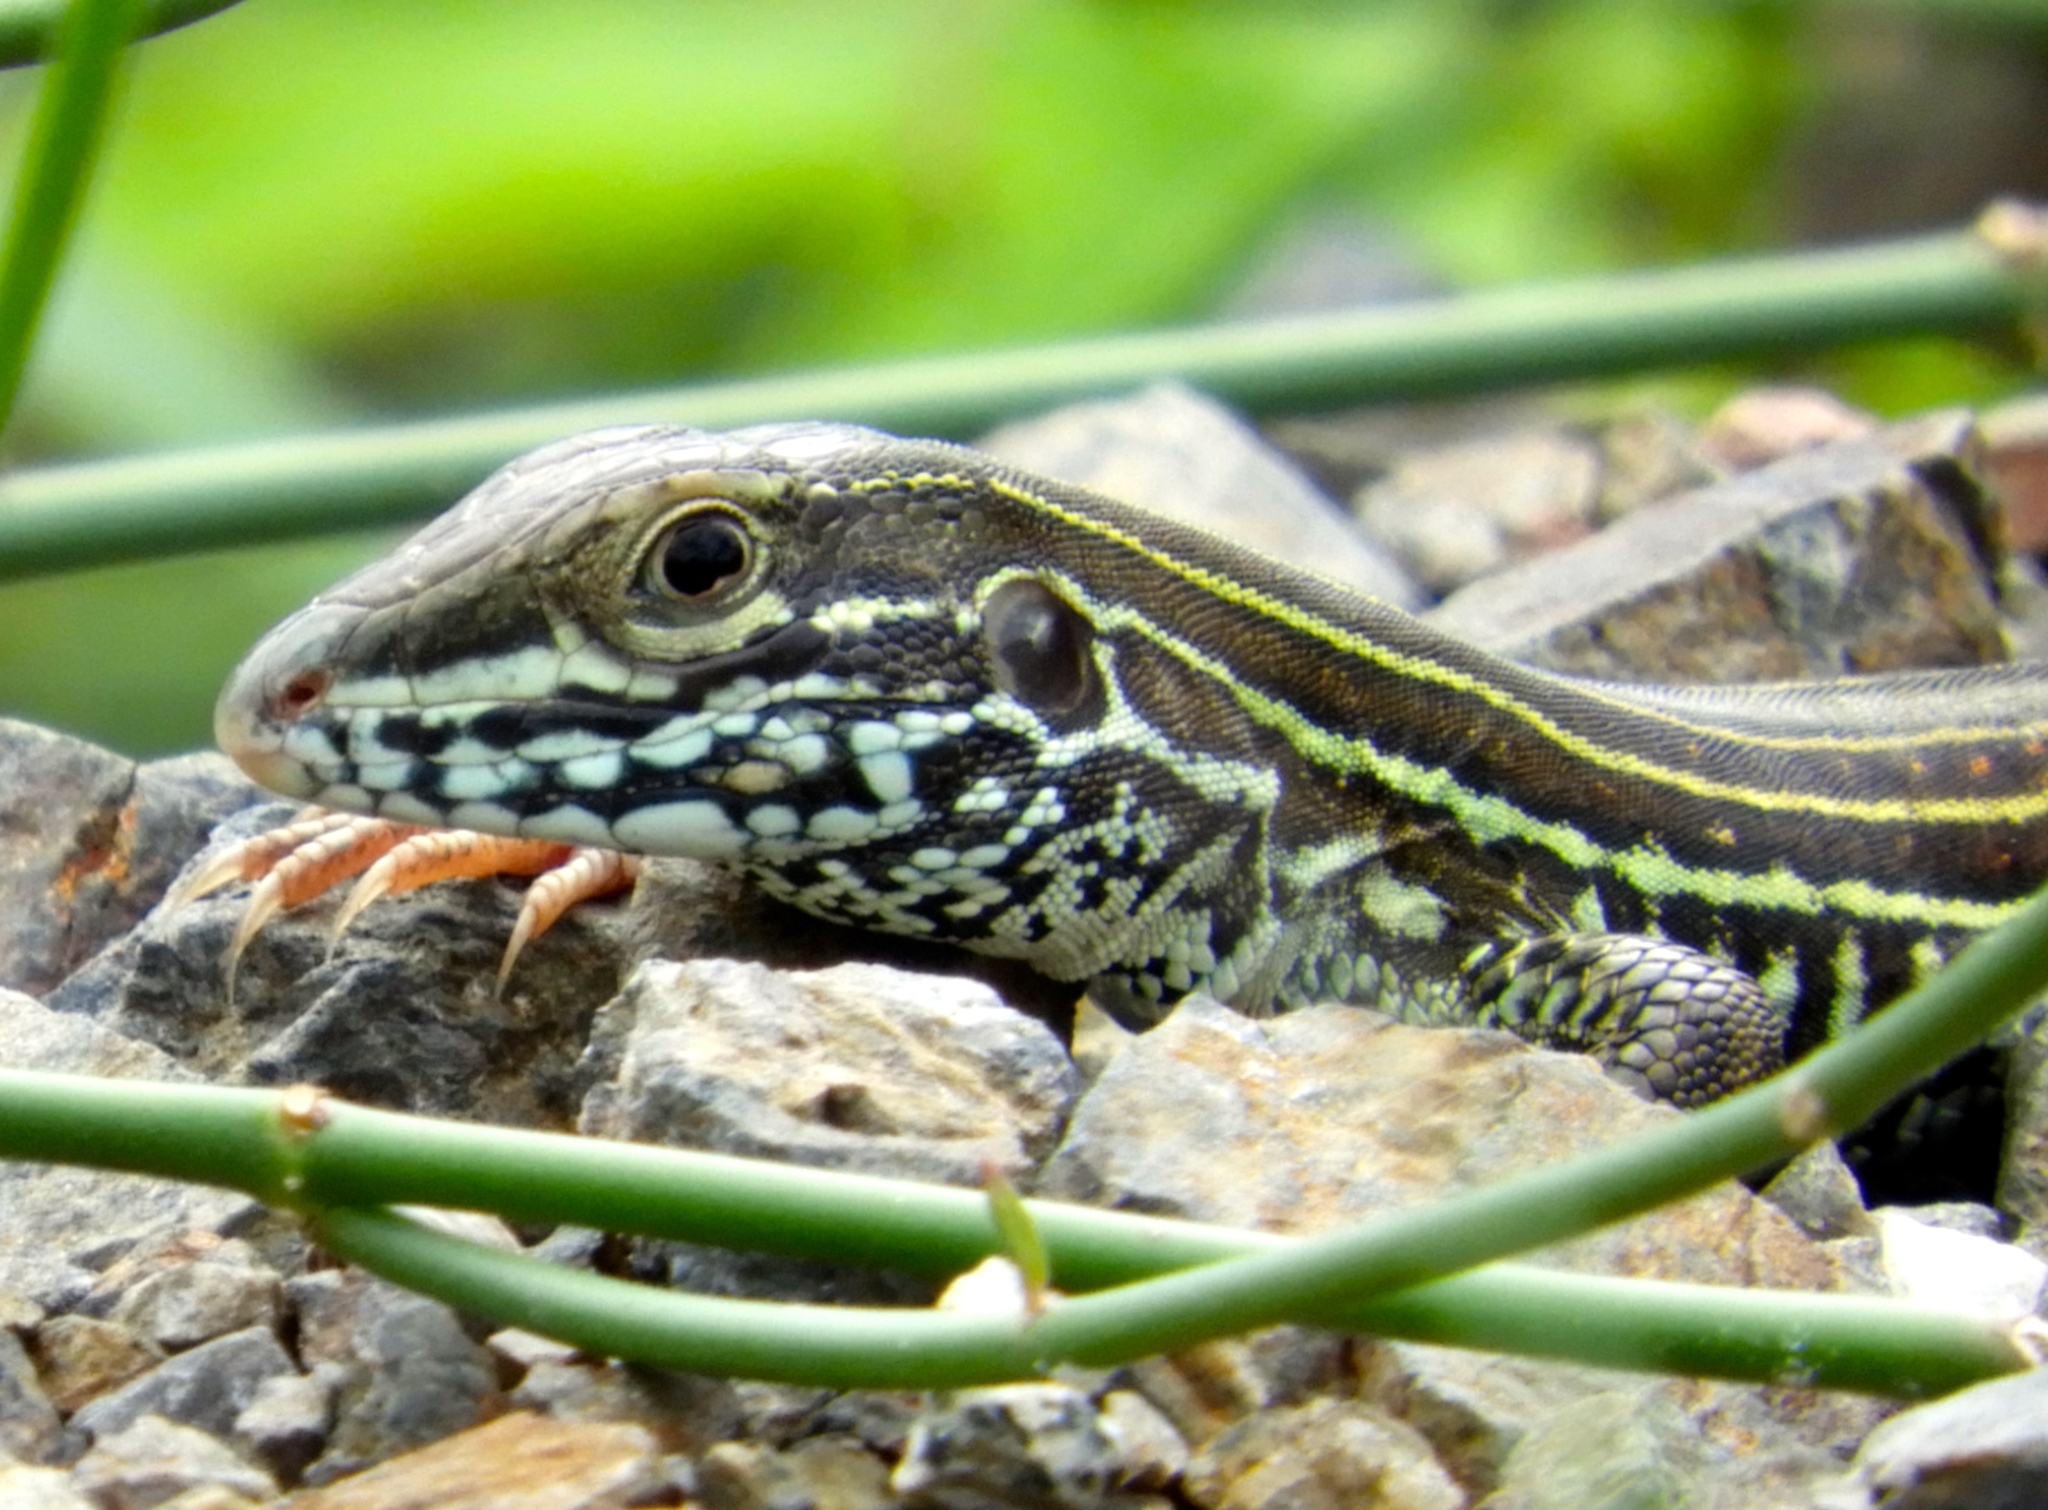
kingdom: Animalia
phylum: Chordata
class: Squamata
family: Teiidae
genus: Aspidoscelis
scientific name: Aspidoscelis costatus
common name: Western mexico whiptail
